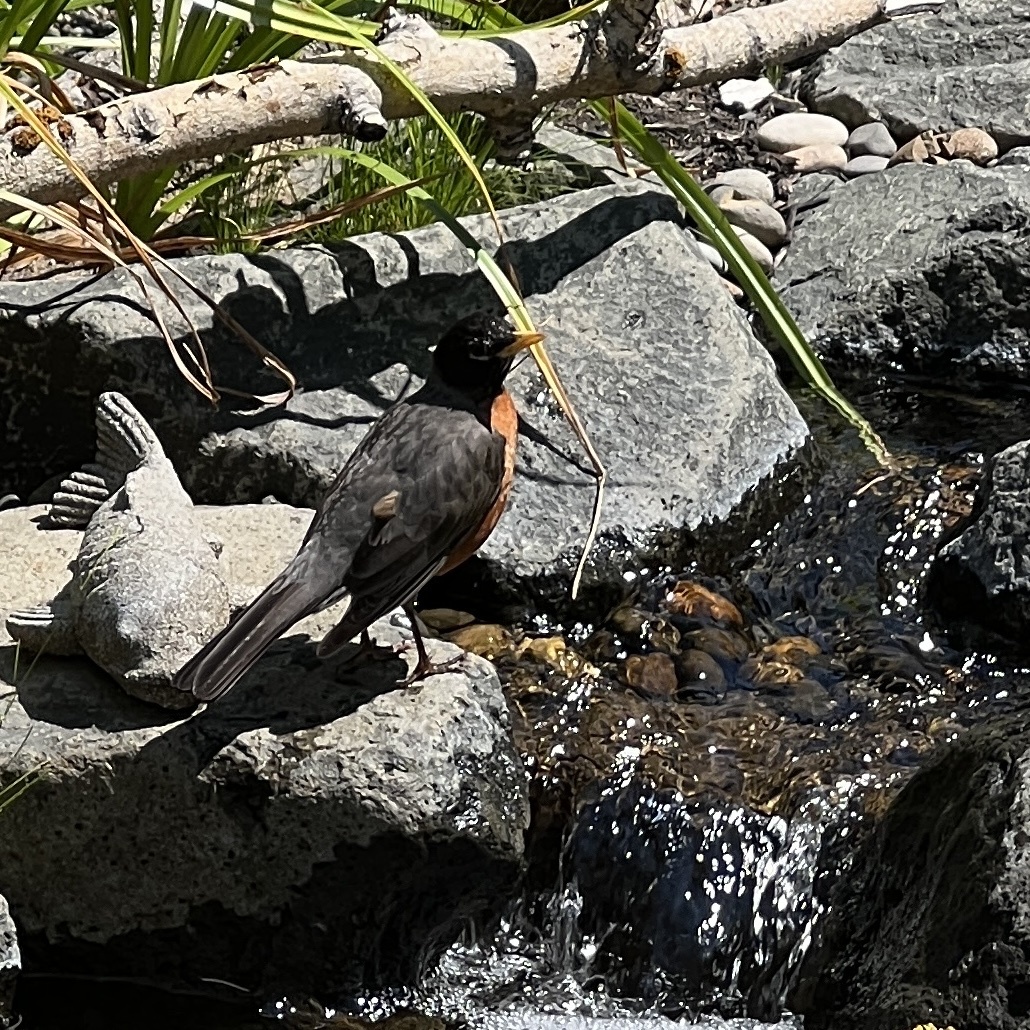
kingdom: Animalia
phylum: Chordata
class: Aves
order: Passeriformes
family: Turdidae
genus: Turdus
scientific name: Turdus migratorius
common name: American robin
